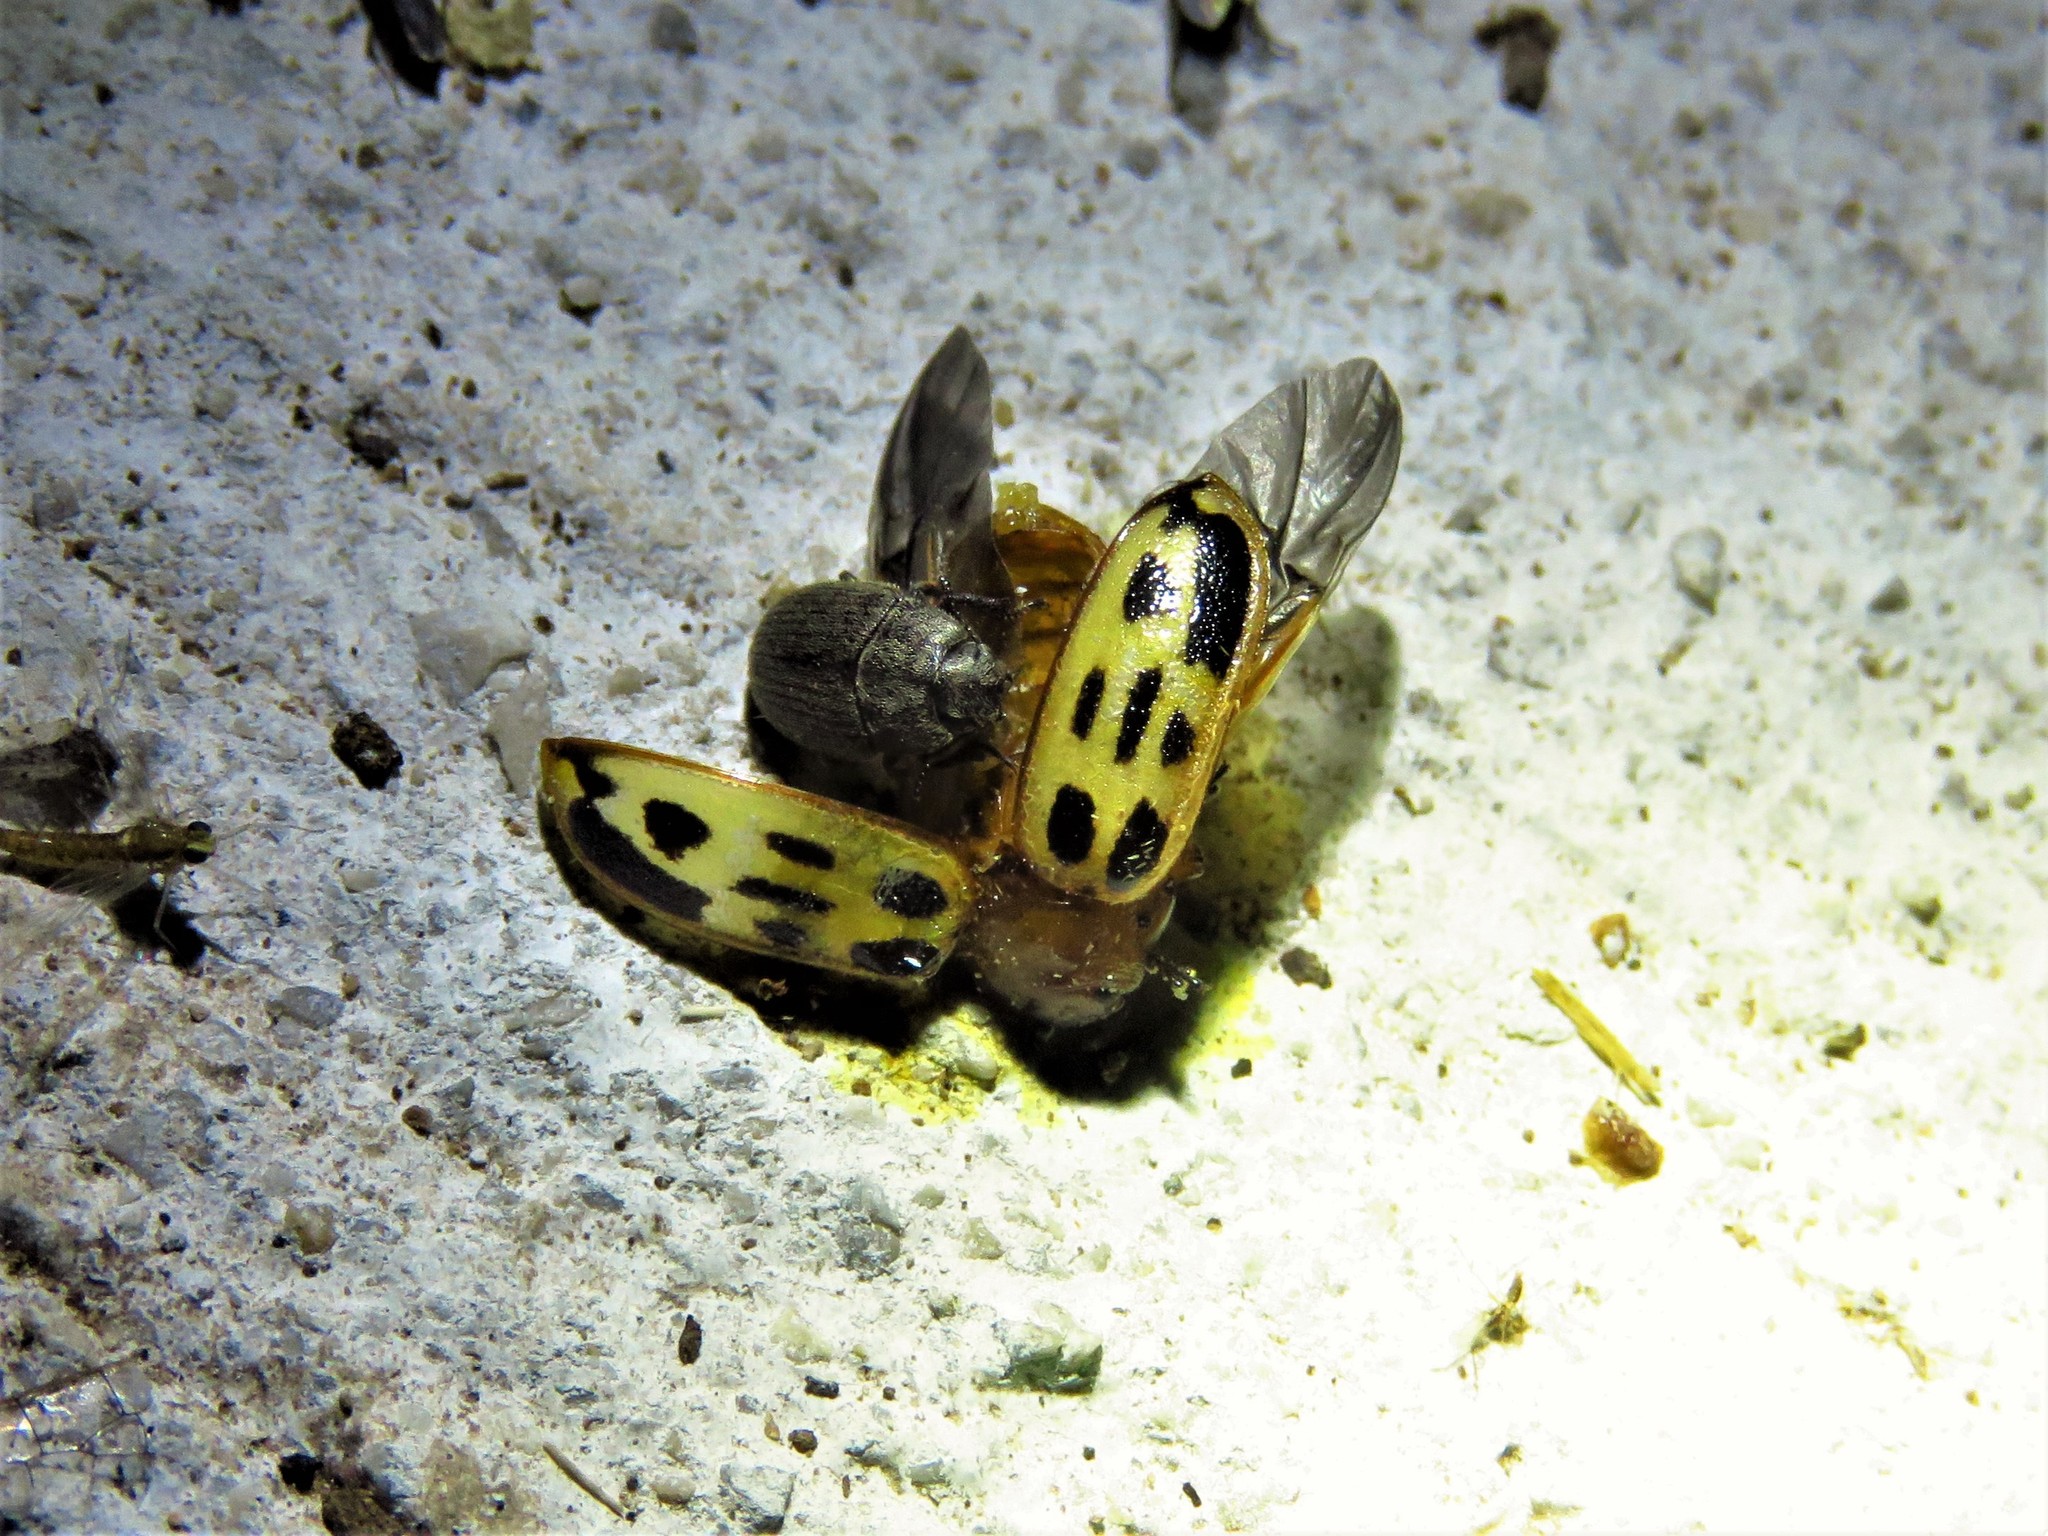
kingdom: Animalia
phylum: Arthropoda
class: Insecta
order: Coleoptera
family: Chrysomelidae
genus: Chrysomela
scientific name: Chrysomela texana
